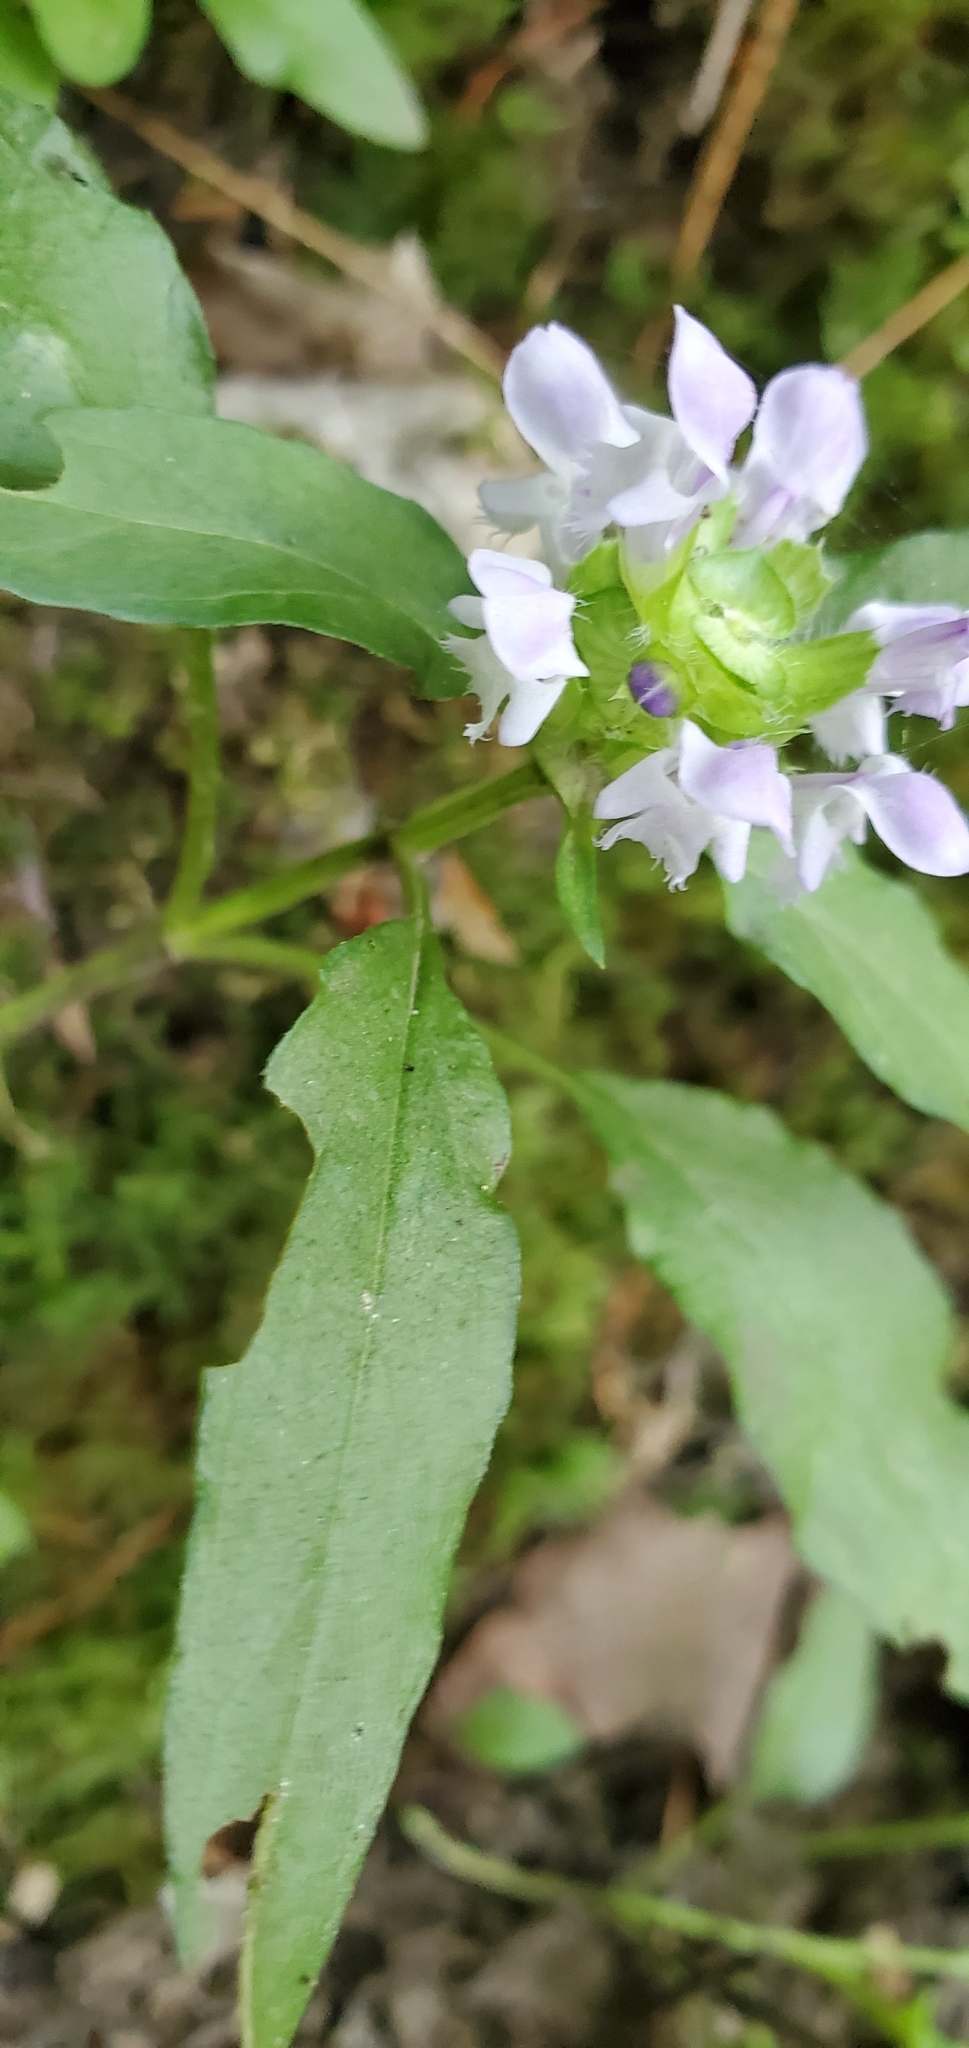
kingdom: Plantae
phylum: Tracheophyta
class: Magnoliopsida
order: Lamiales
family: Lamiaceae
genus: Prunella
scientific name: Prunella vulgaris
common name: Heal-all
